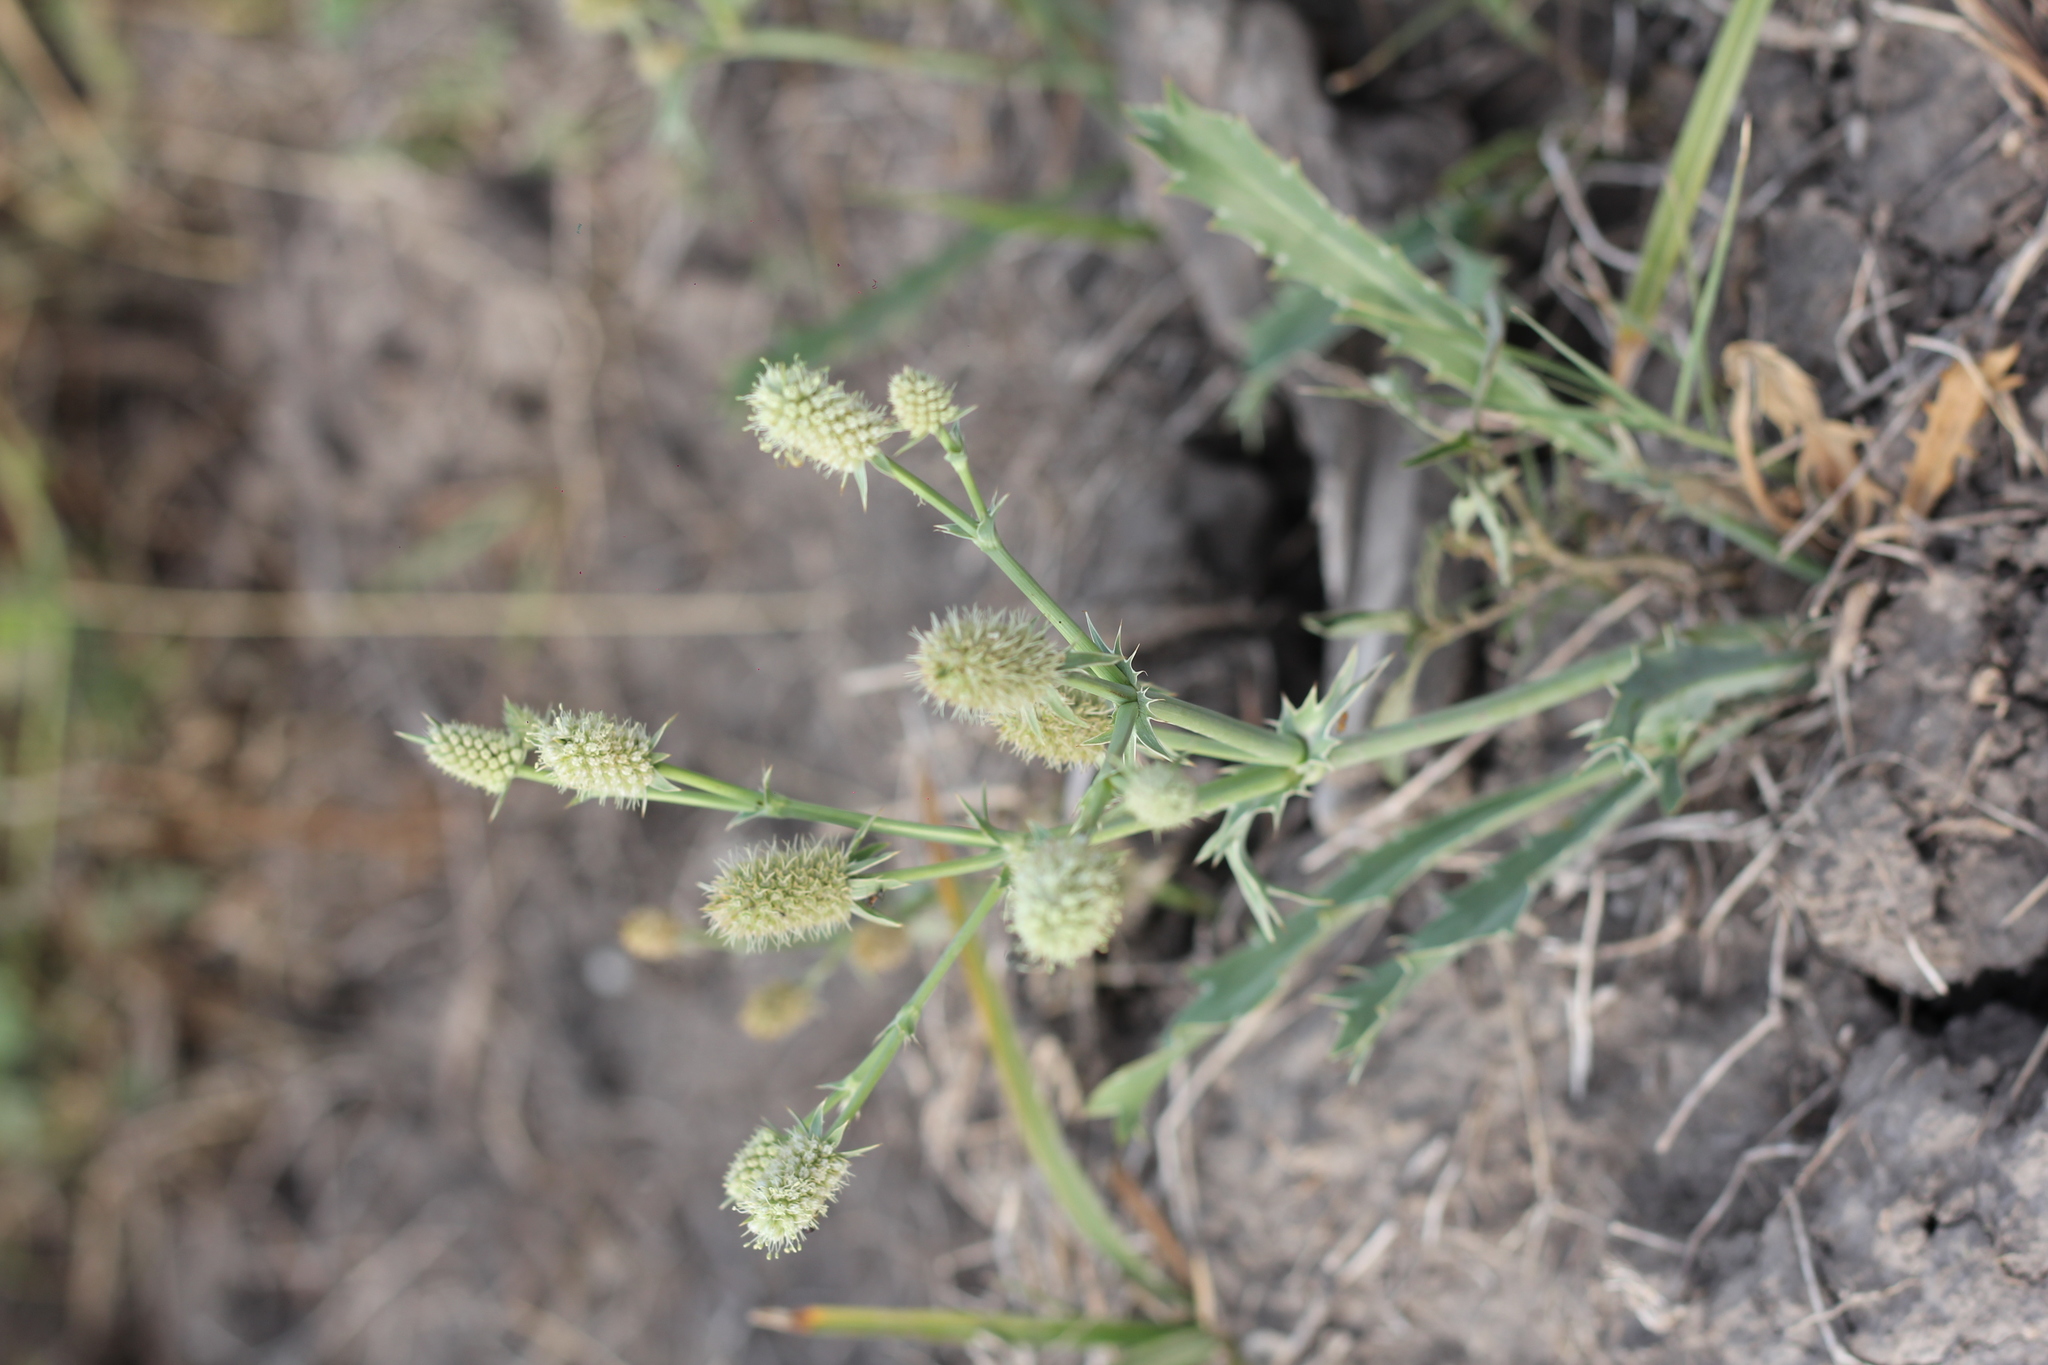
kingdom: Plantae
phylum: Tracheophyta
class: Magnoliopsida
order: Apiales
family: Apiaceae
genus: Eryngium
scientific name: Eryngium coronatum
